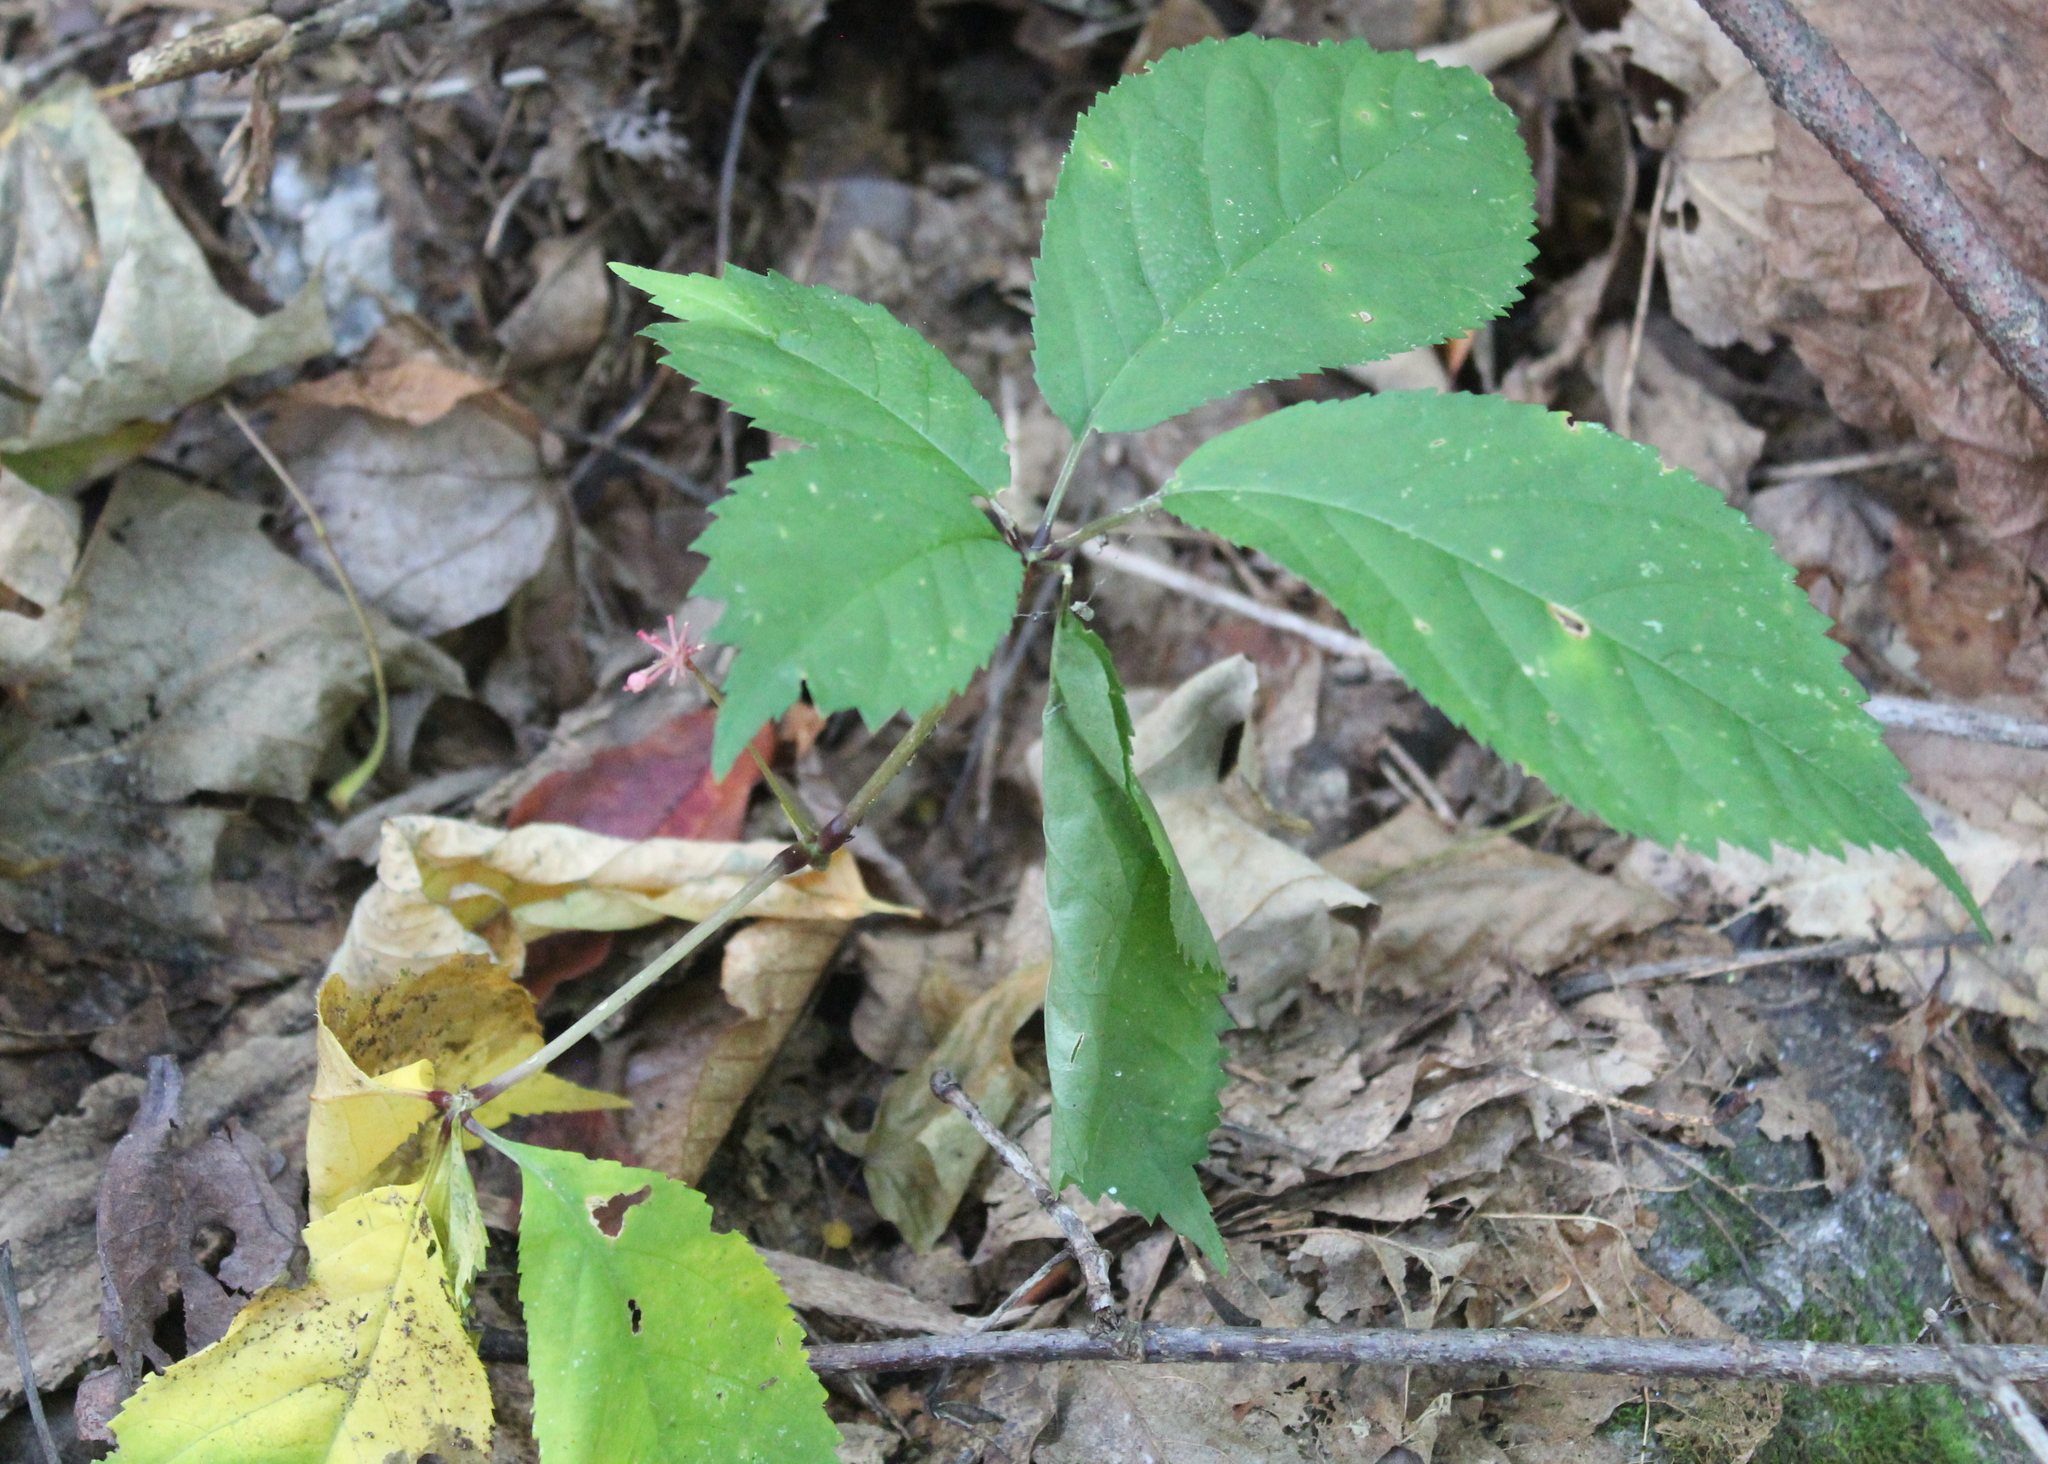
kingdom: Plantae
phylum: Tracheophyta
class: Magnoliopsida
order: Apiales
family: Araliaceae
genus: Panax
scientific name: Panax quinquefolius
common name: American ginseng
